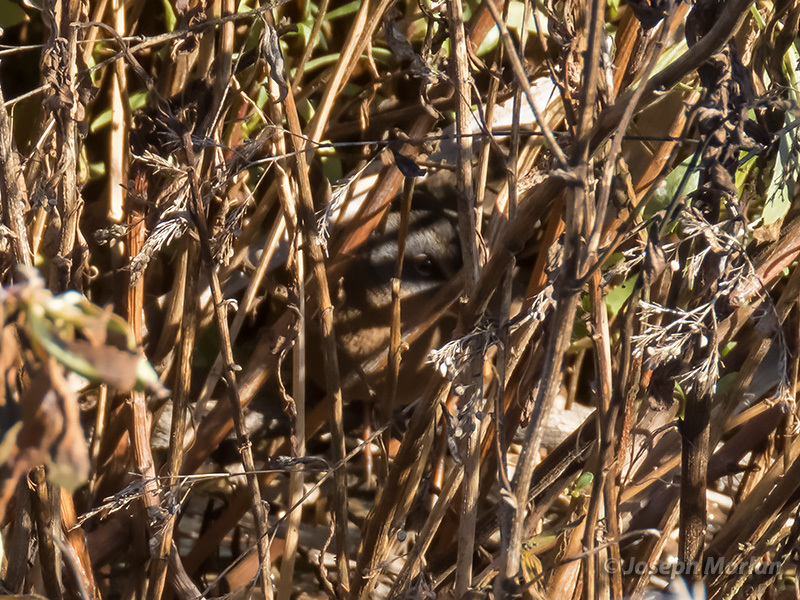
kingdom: Animalia
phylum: Chordata
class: Aves
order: Gruiformes
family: Rallidae
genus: Rallus
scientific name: Rallus limicola
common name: Virginia rail
